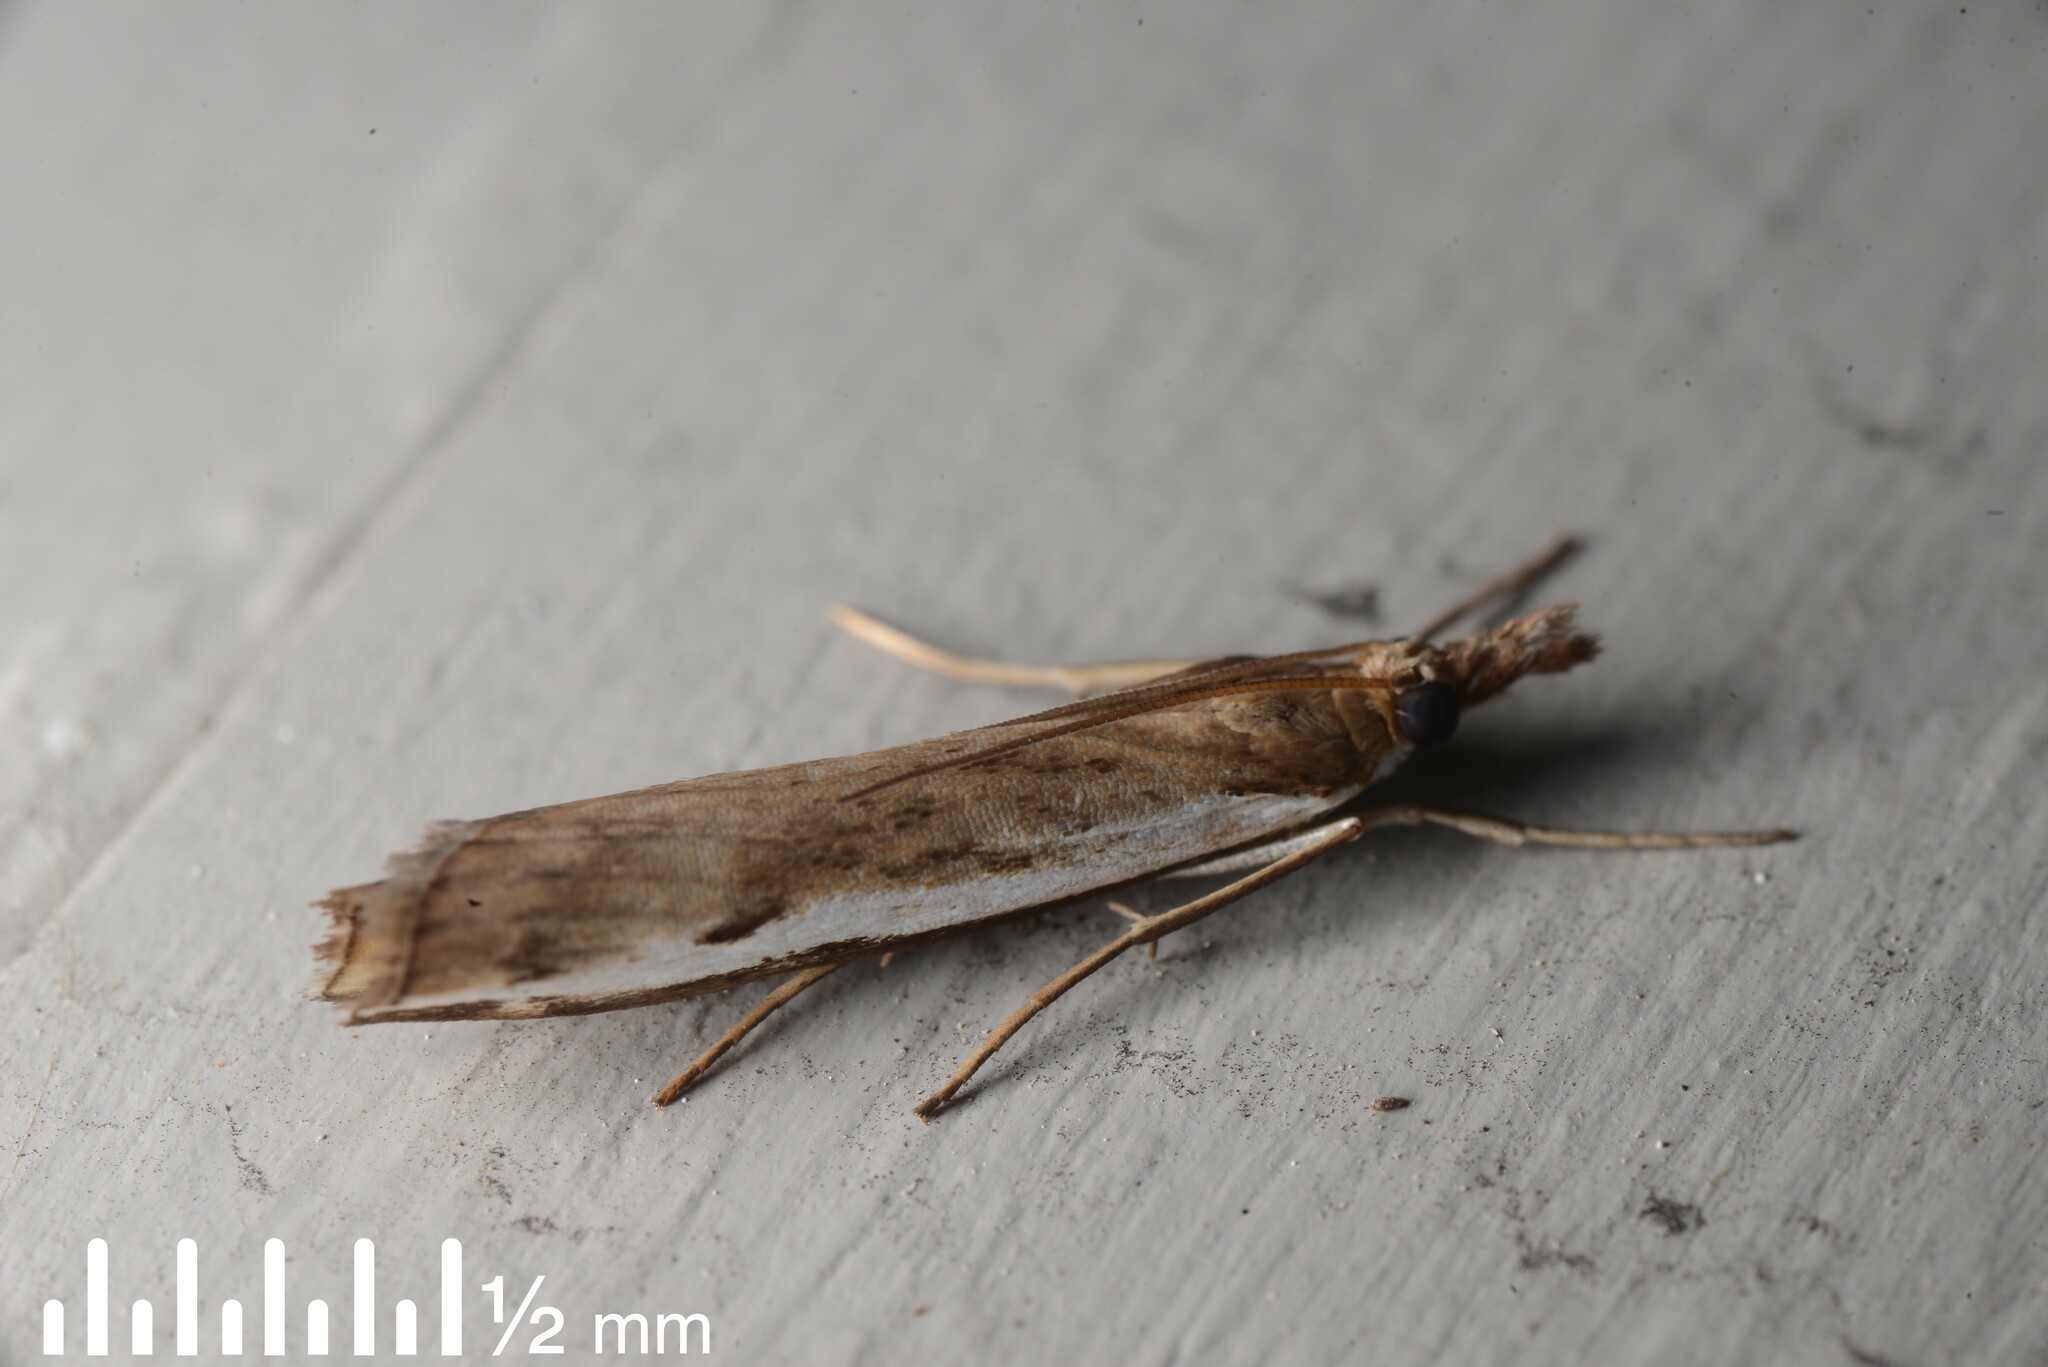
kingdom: Animalia
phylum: Arthropoda
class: Insecta
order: Lepidoptera
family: Crambidae
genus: Orocrambus
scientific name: Orocrambus flexuosellus
